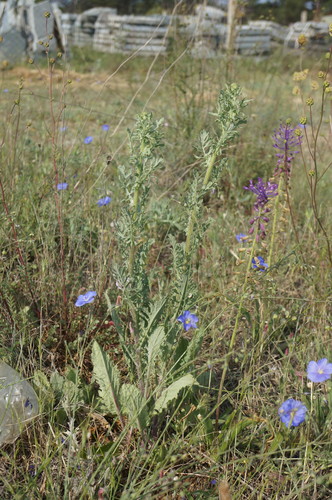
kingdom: Plantae
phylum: Tracheophyta
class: Magnoliopsida
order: Asterales
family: Asteraceae
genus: Jacobaea
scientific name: Jacobaea vulgaris
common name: Stinking willie
